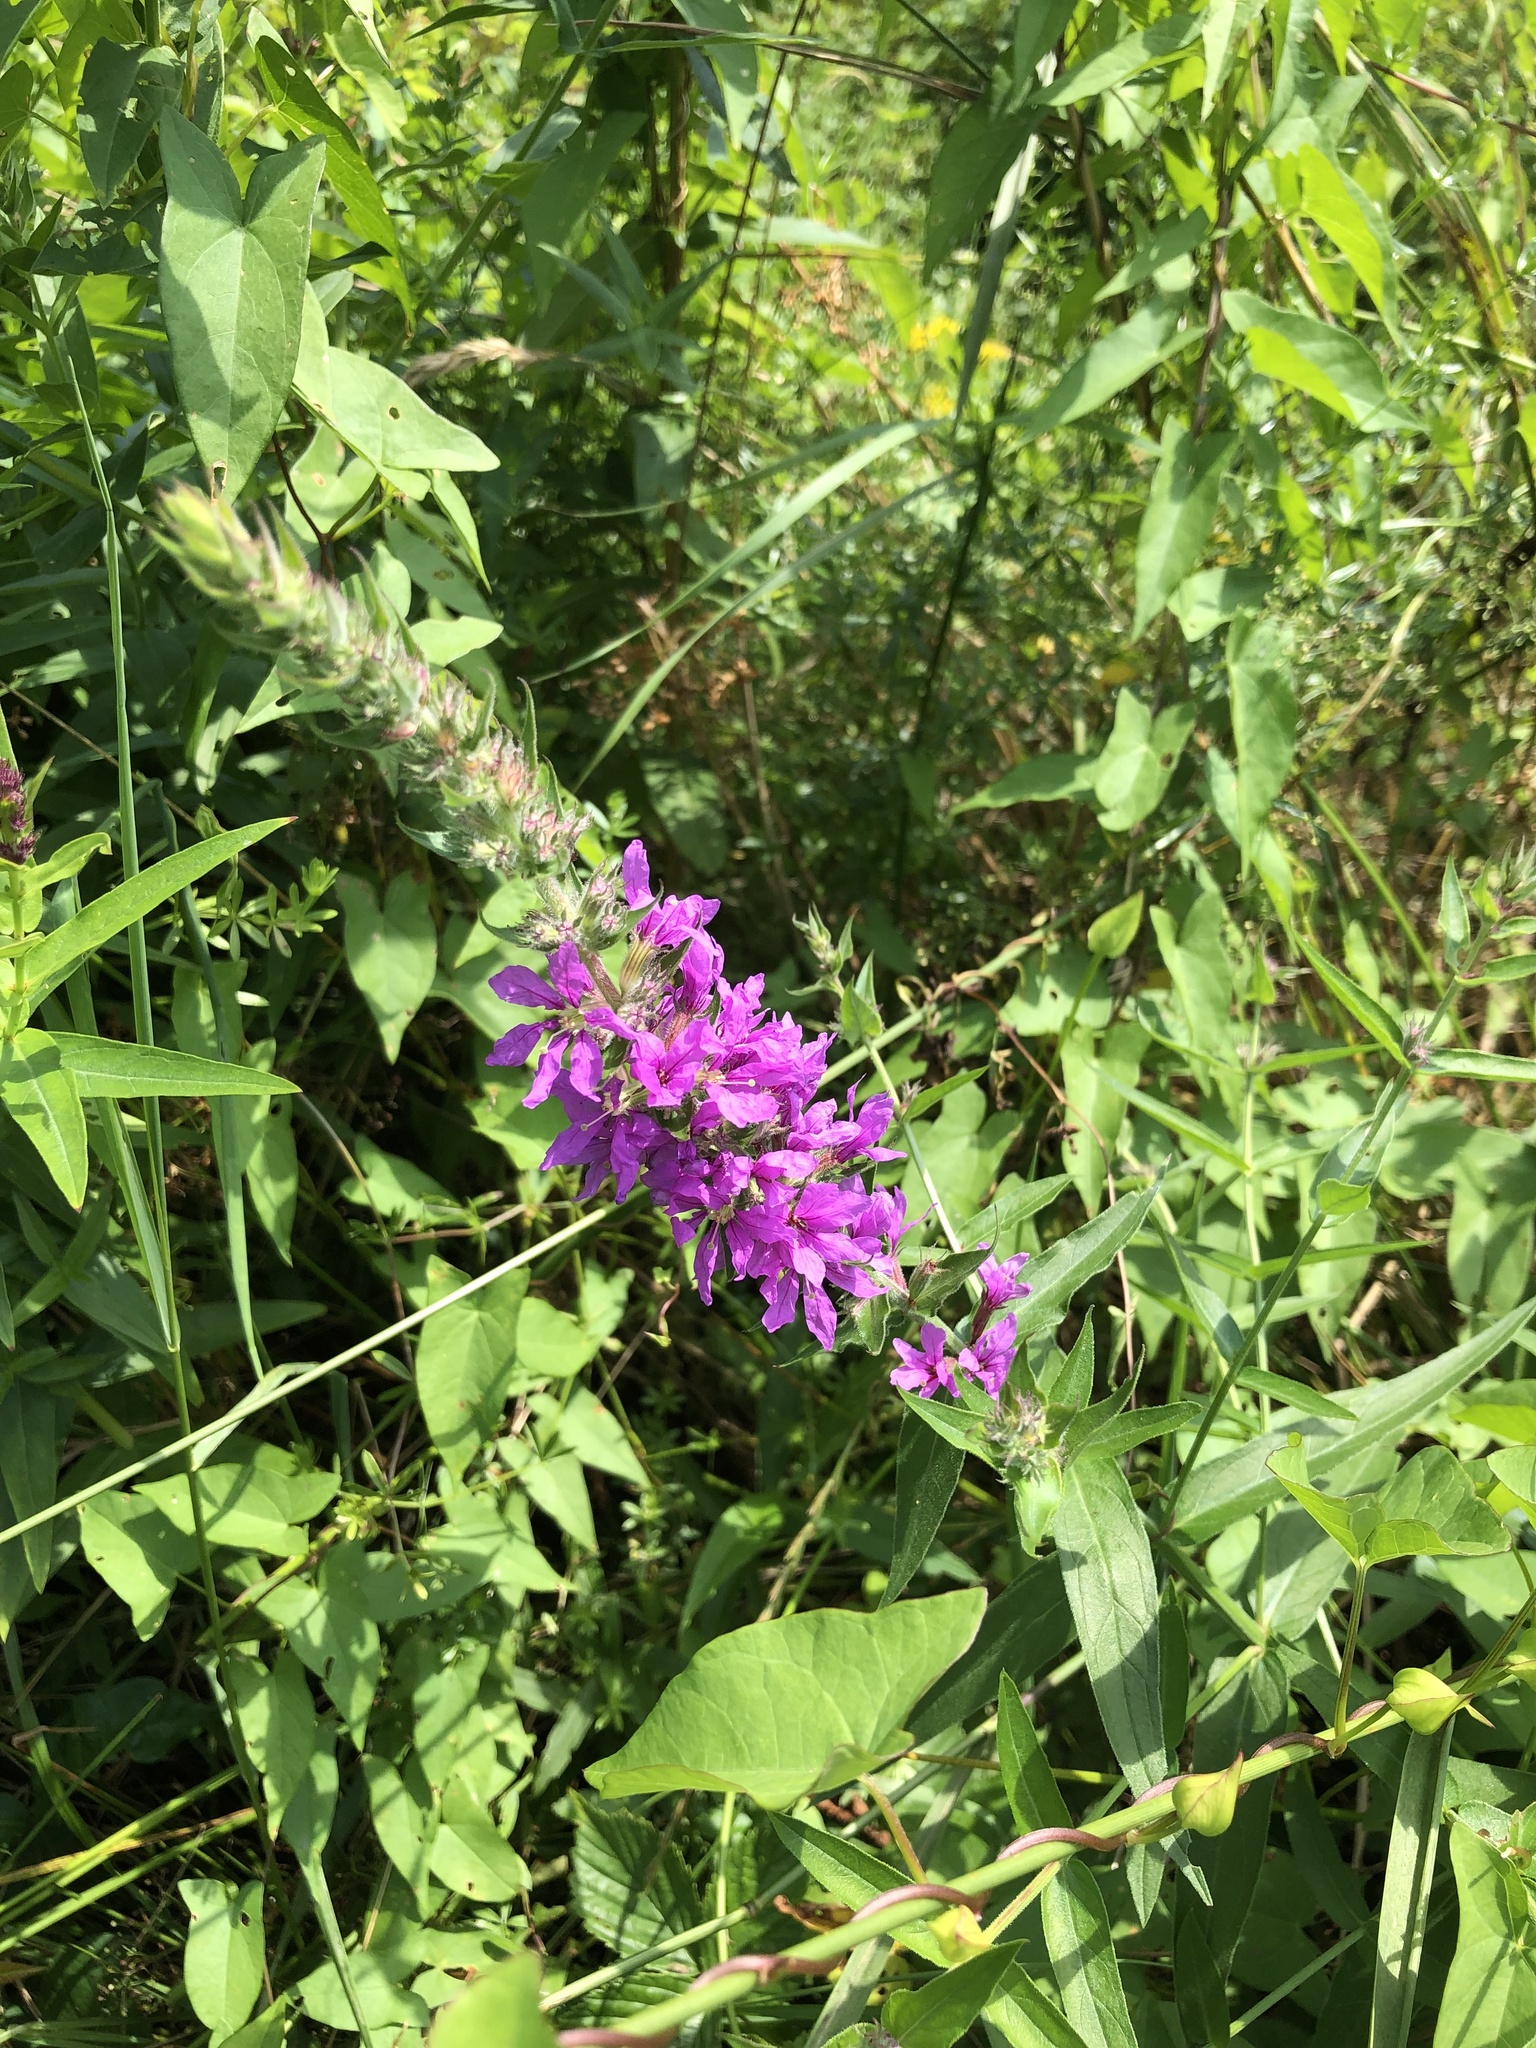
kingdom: Plantae
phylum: Tracheophyta
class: Magnoliopsida
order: Myrtales
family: Lythraceae
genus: Lythrum
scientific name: Lythrum salicaria
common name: Purple loosestrife
